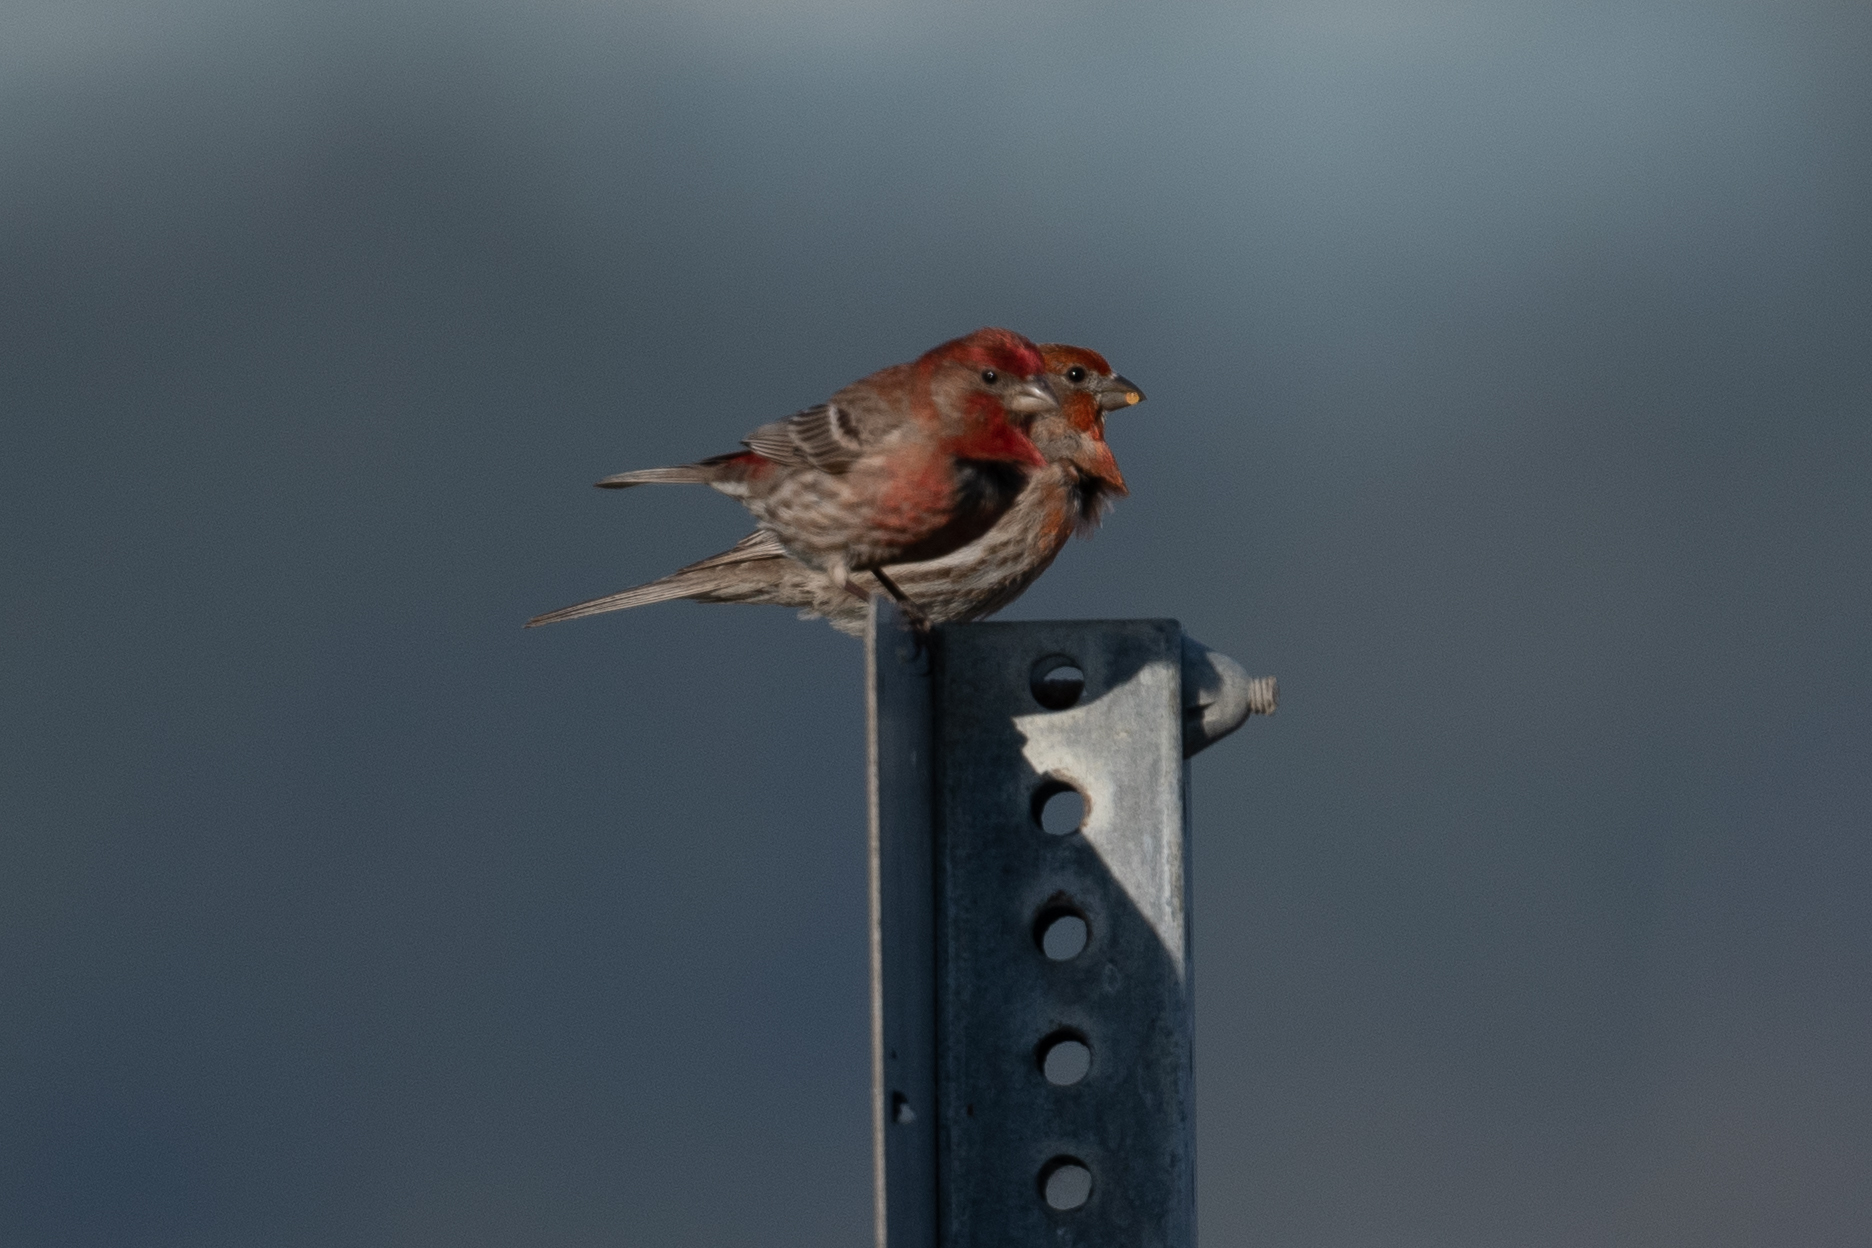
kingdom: Animalia
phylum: Chordata
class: Aves
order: Passeriformes
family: Fringillidae
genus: Haemorhous
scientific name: Haemorhous mexicanus
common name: House finch
